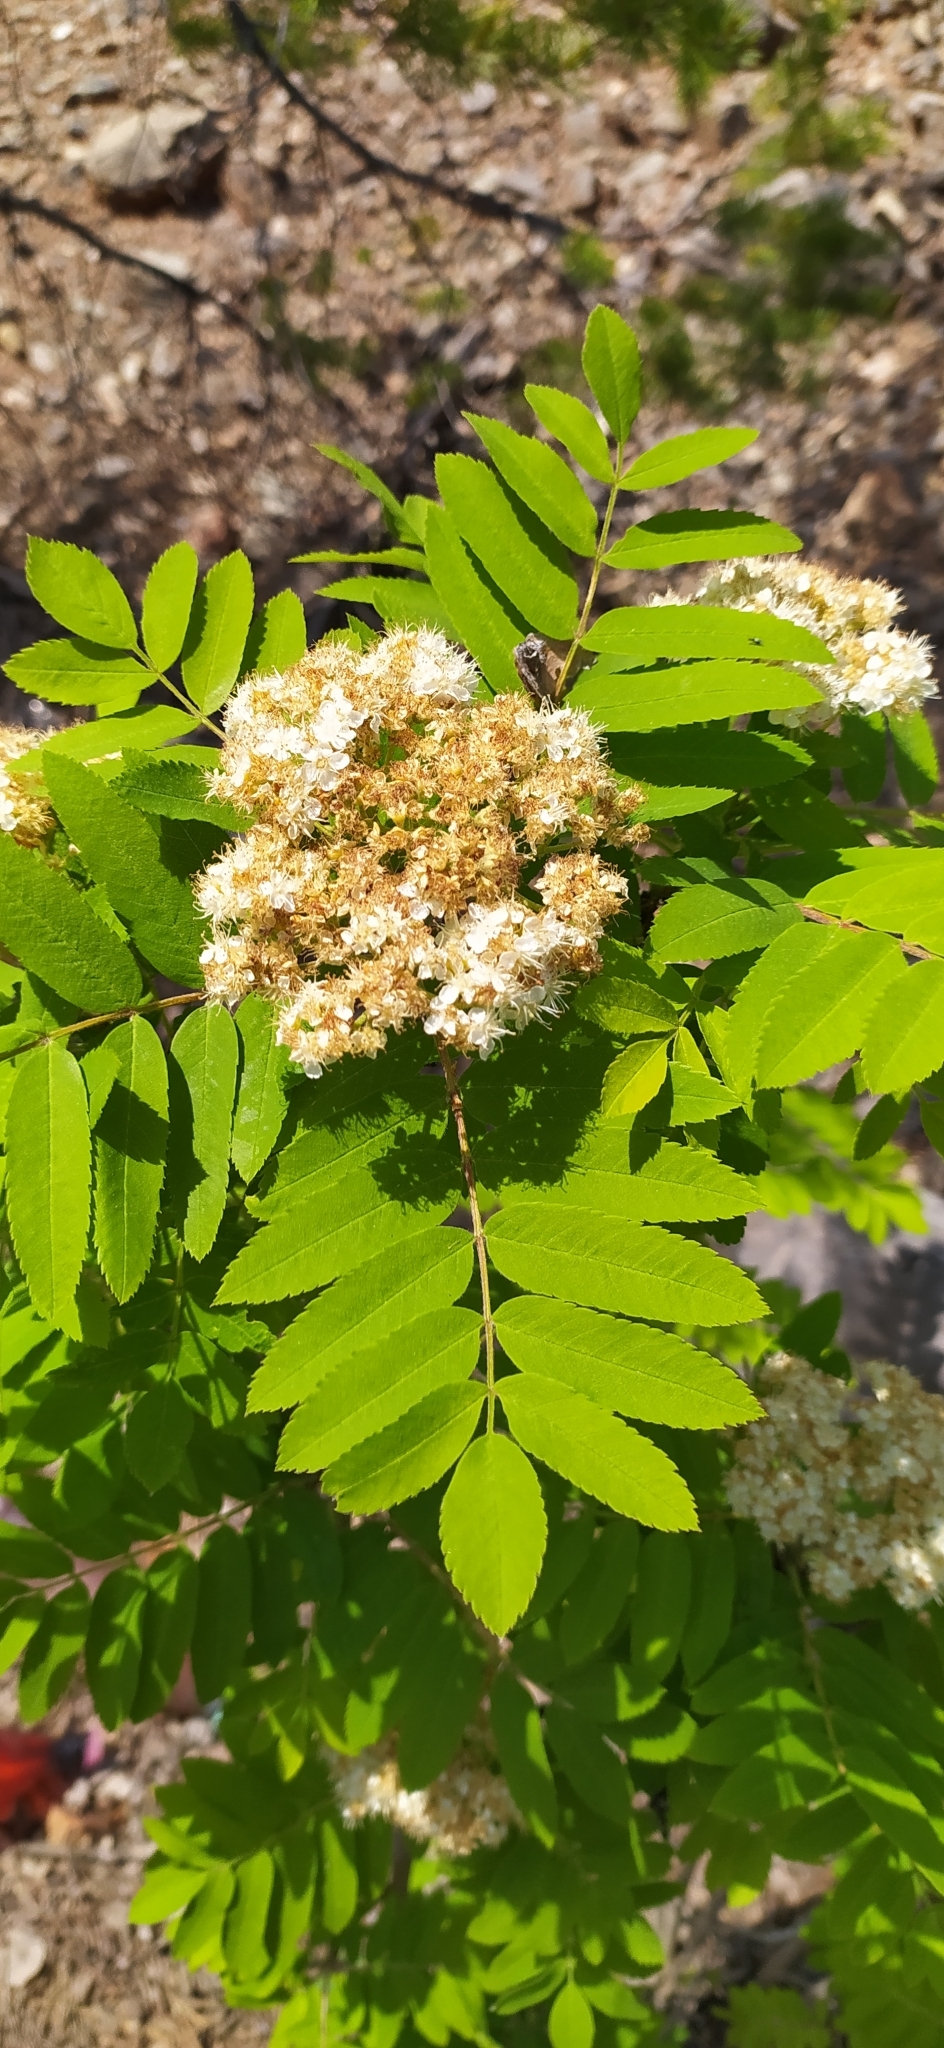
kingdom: Plantae
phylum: Tracheophyta
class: Magnoliopsida
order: Rosales
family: Rosaceae
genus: Sorbus
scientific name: Sorbus aucuparia
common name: Rowan
